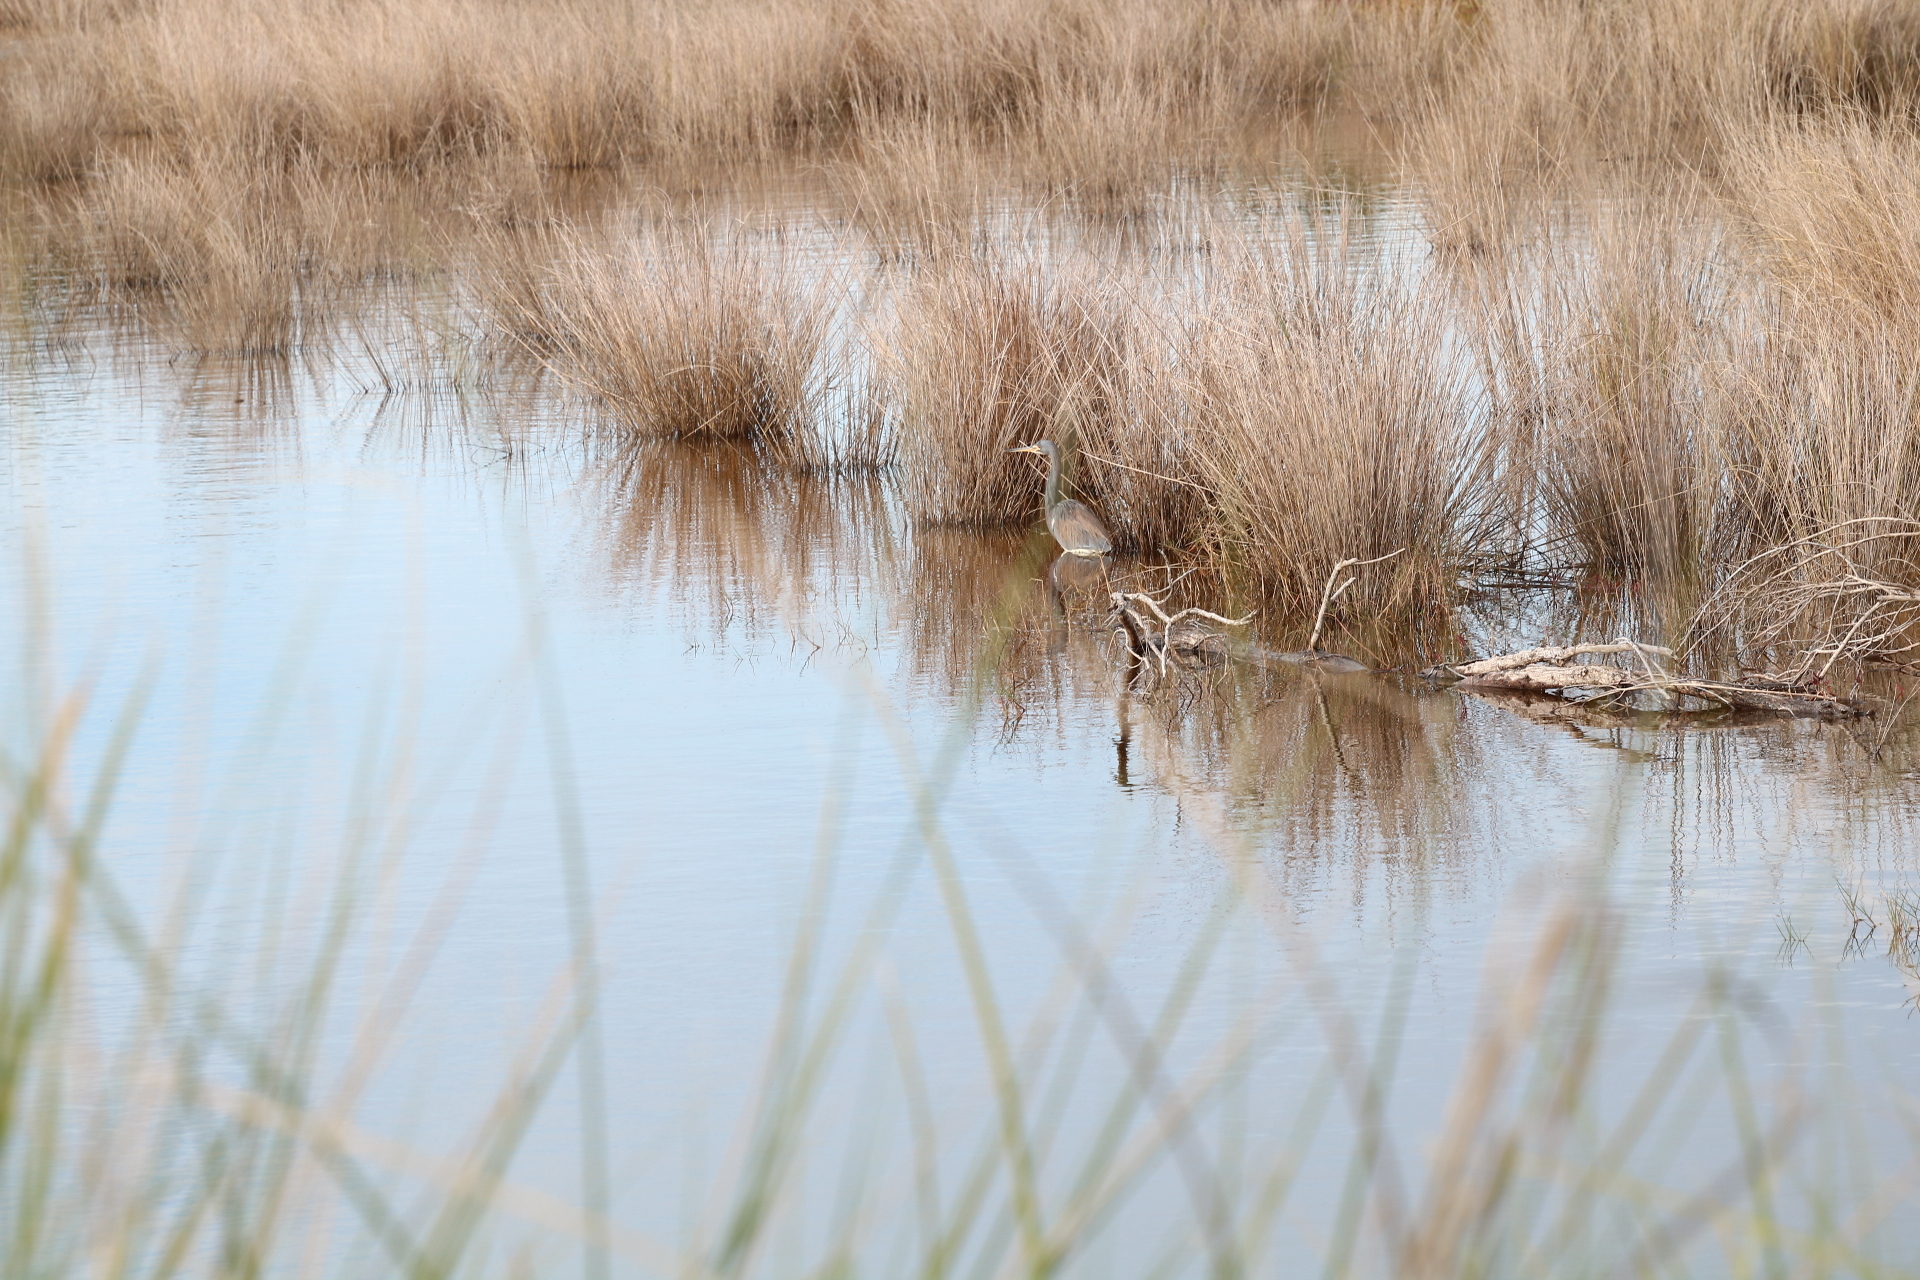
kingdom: Animalia
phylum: Chordata
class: Aves
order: Pelecaniformes
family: Ardeidae
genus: Egretta
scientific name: Egretta tricolor
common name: Tricolored heron
